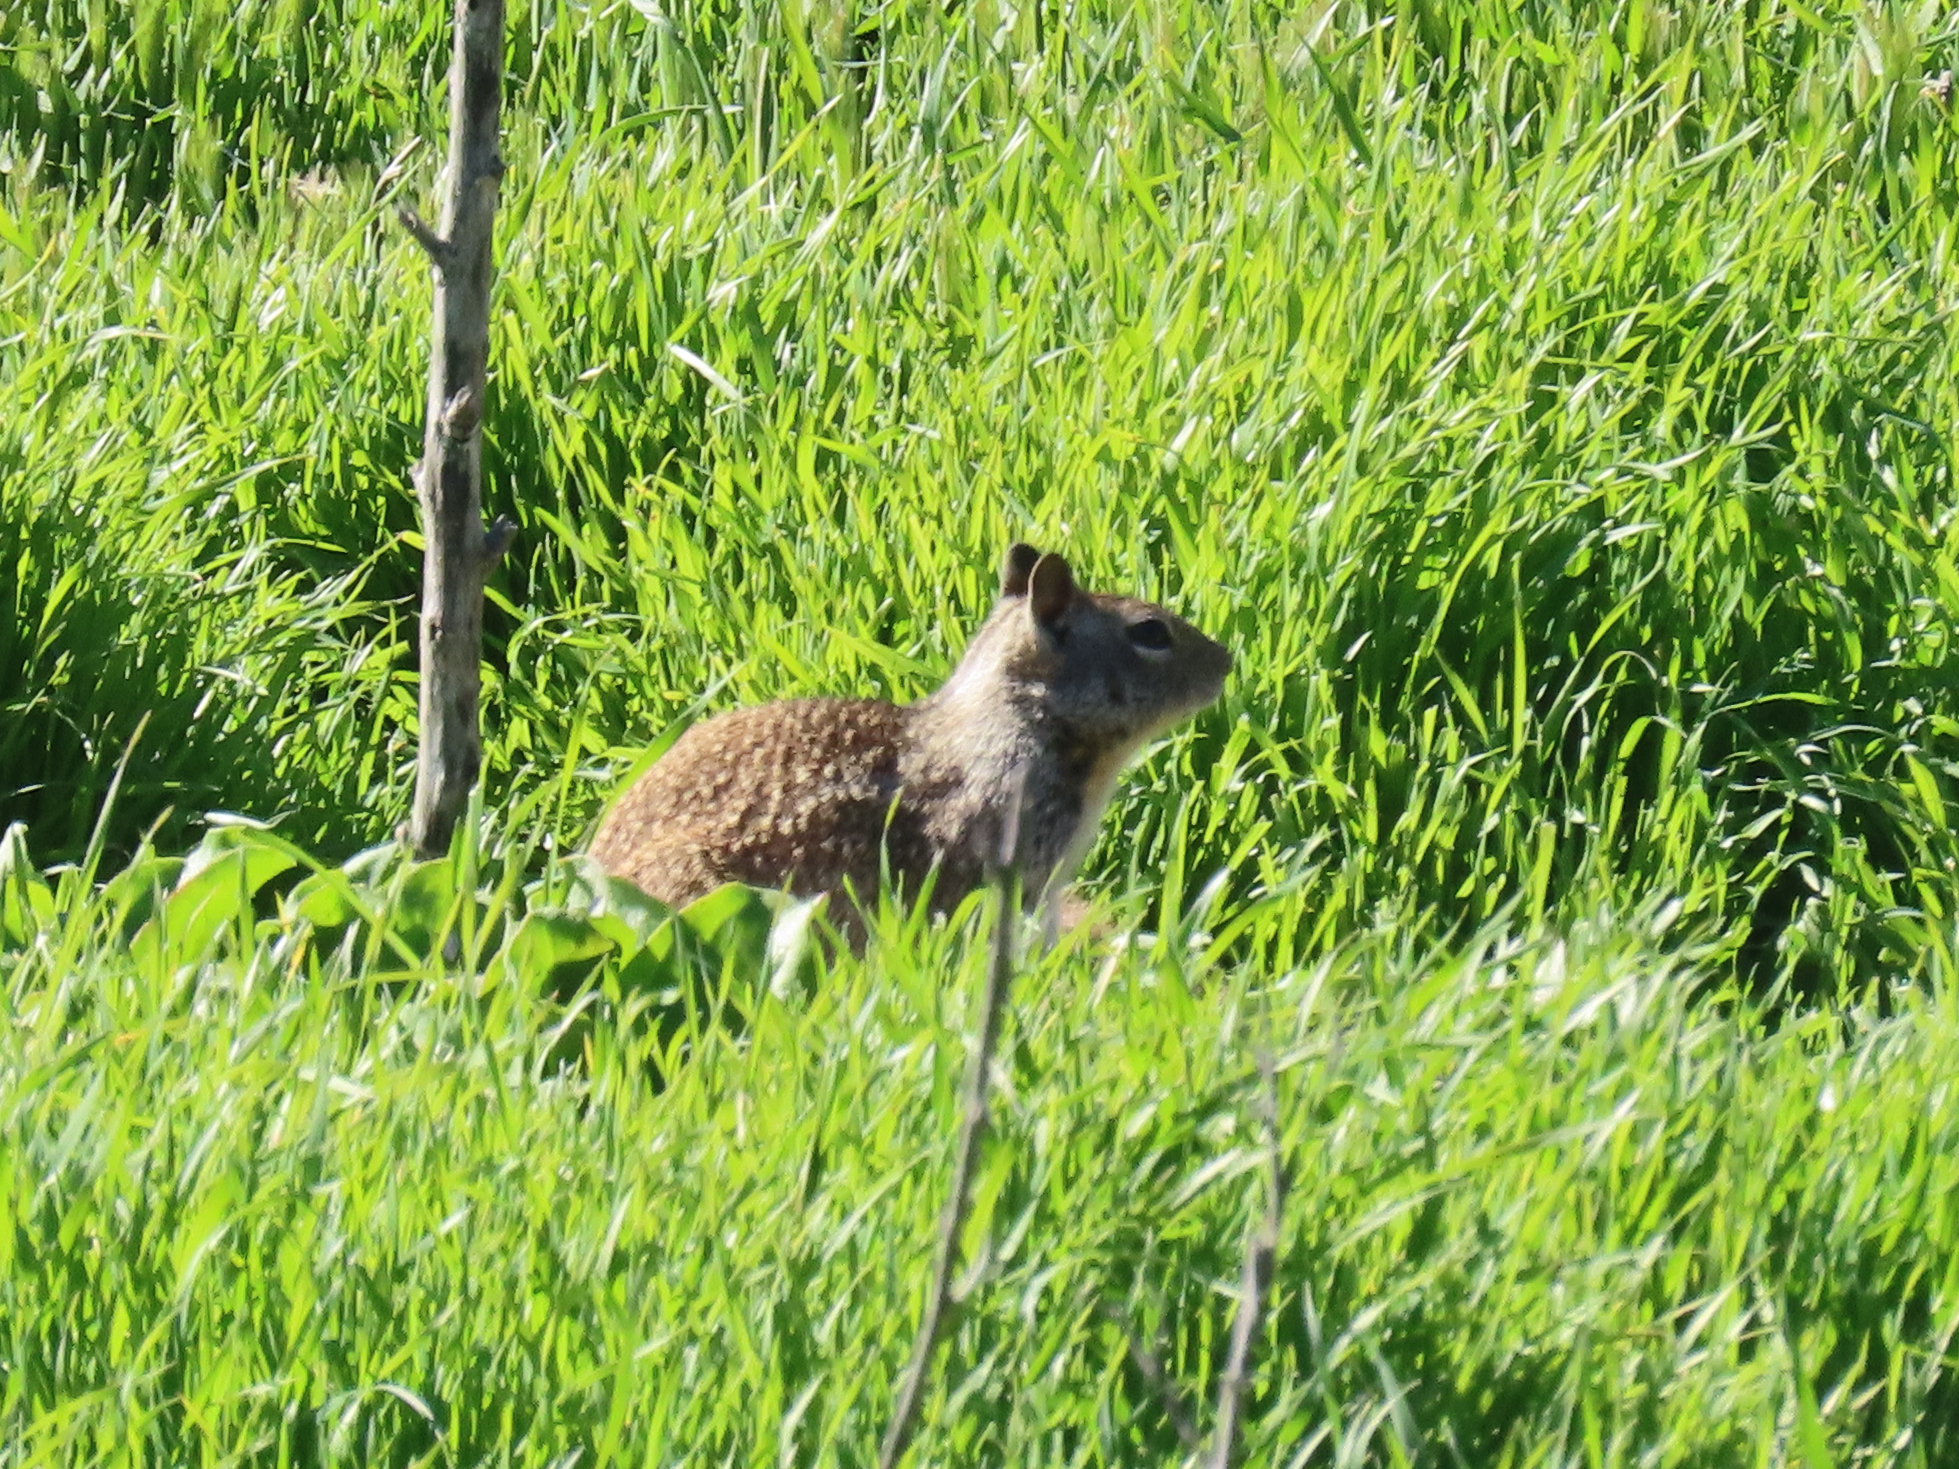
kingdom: Animalia
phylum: Chordata
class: Mammalia
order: Rodentia
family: Sciuridae
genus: Otospermophilus
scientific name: Otospermophilus beecheyi
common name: California ground squirrel
